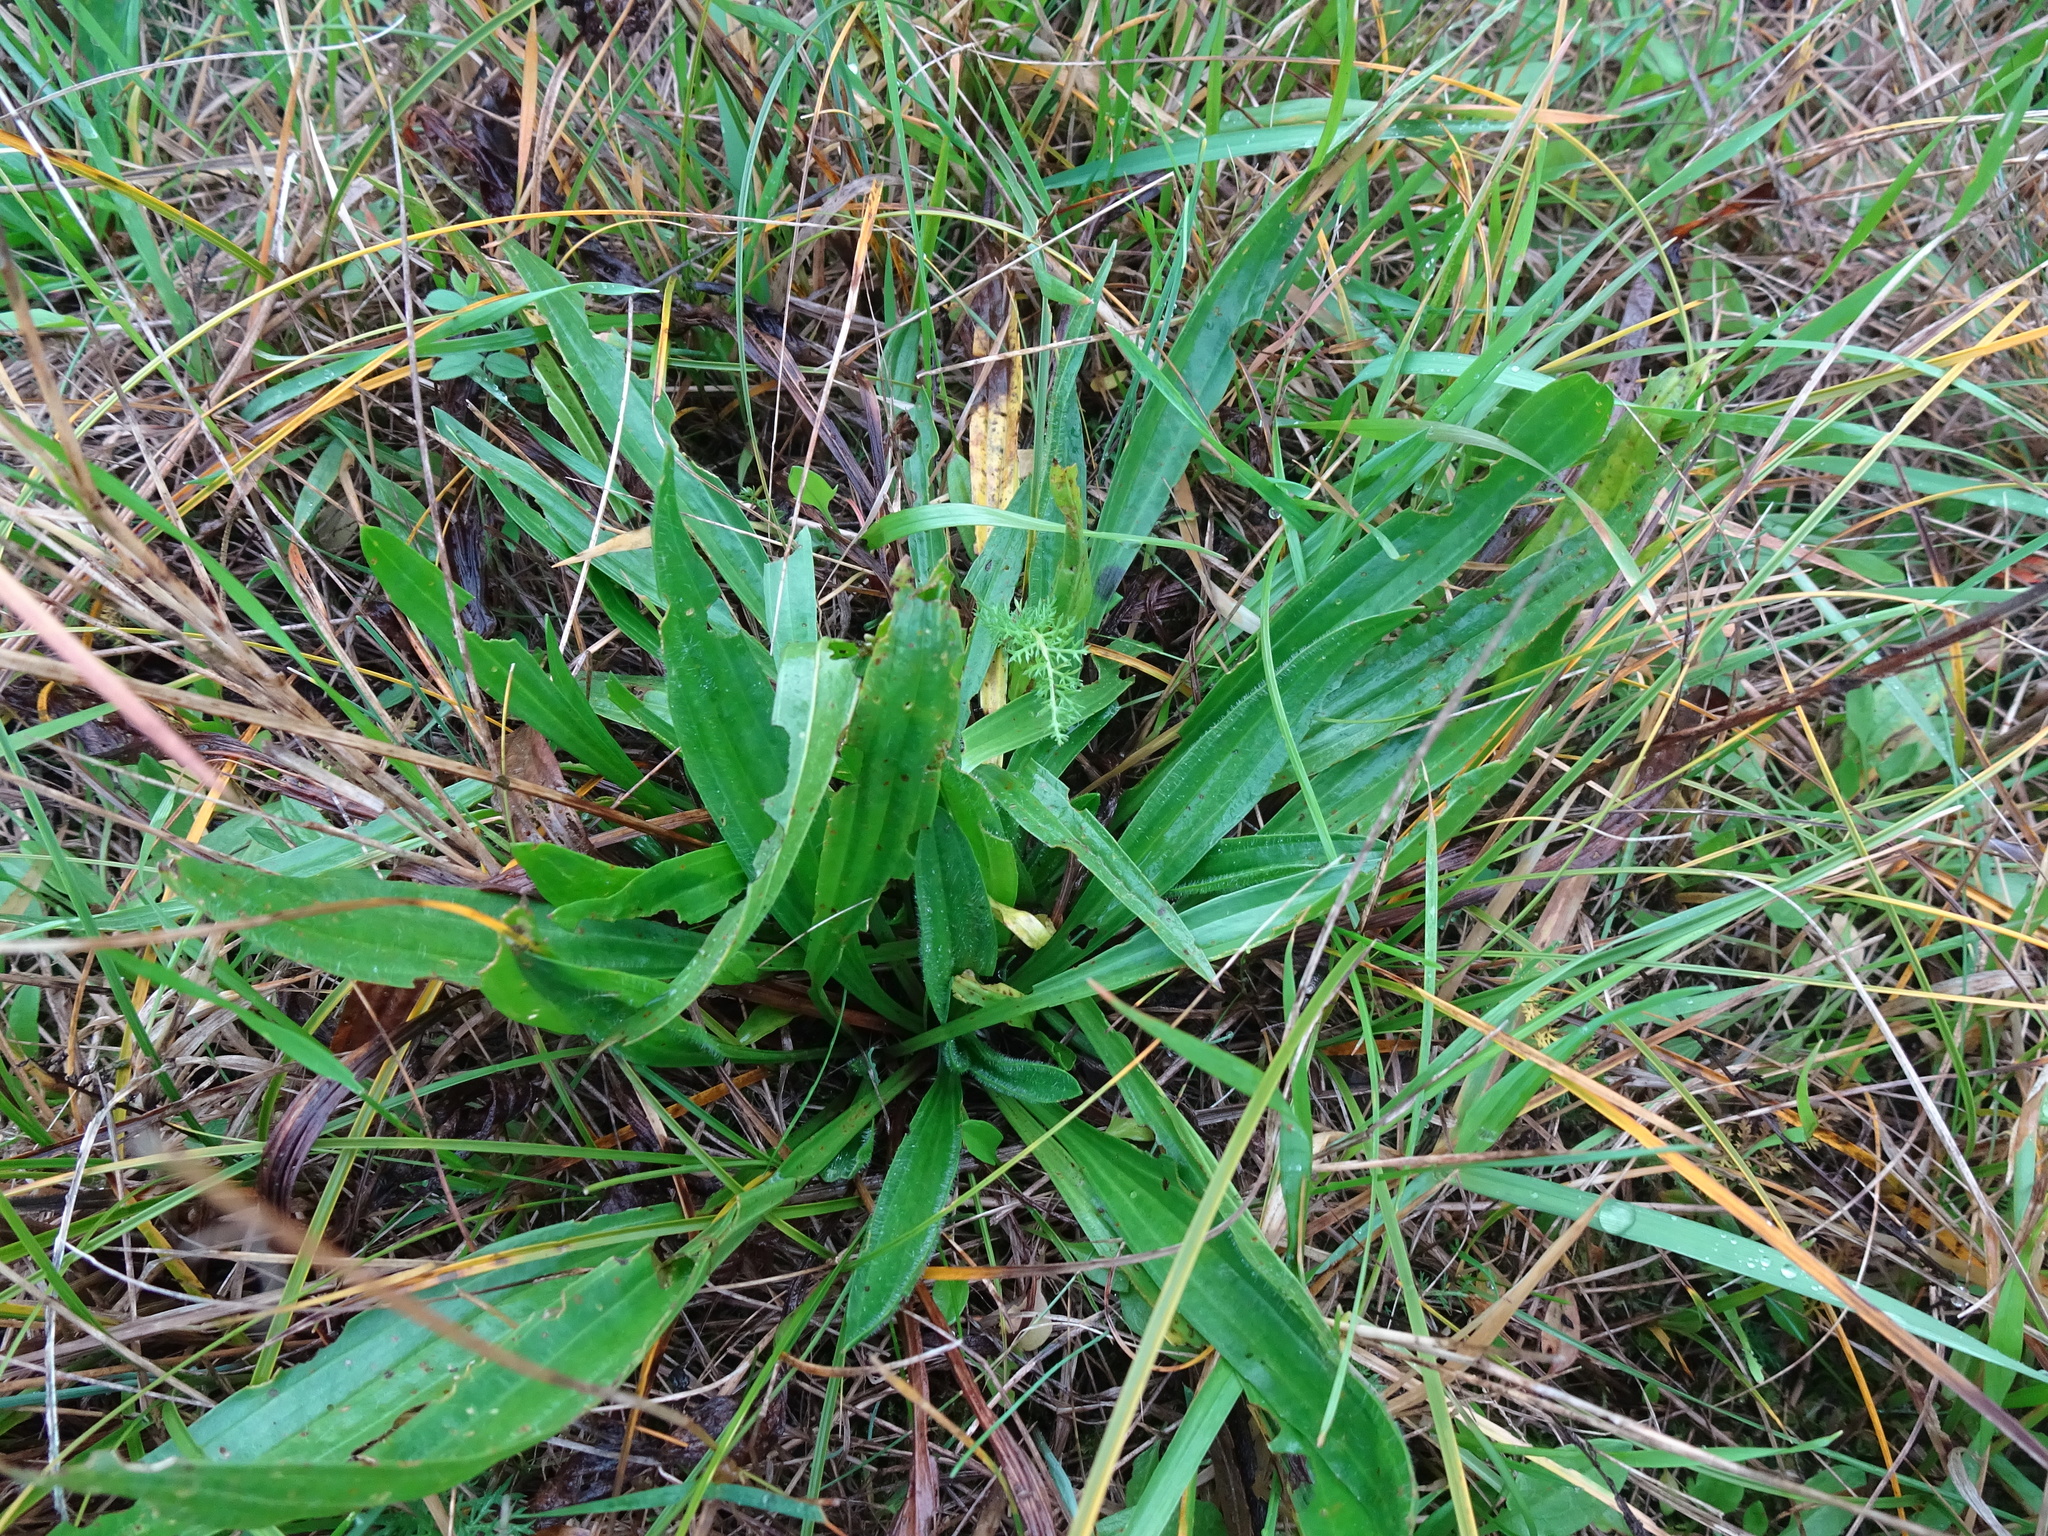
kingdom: Plantae
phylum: Tracheophyta
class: Magnoliopsida
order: Lamiales
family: Plantaginaceae
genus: Plantago
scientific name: Plantago lanceolata
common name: Ribwort plantain
